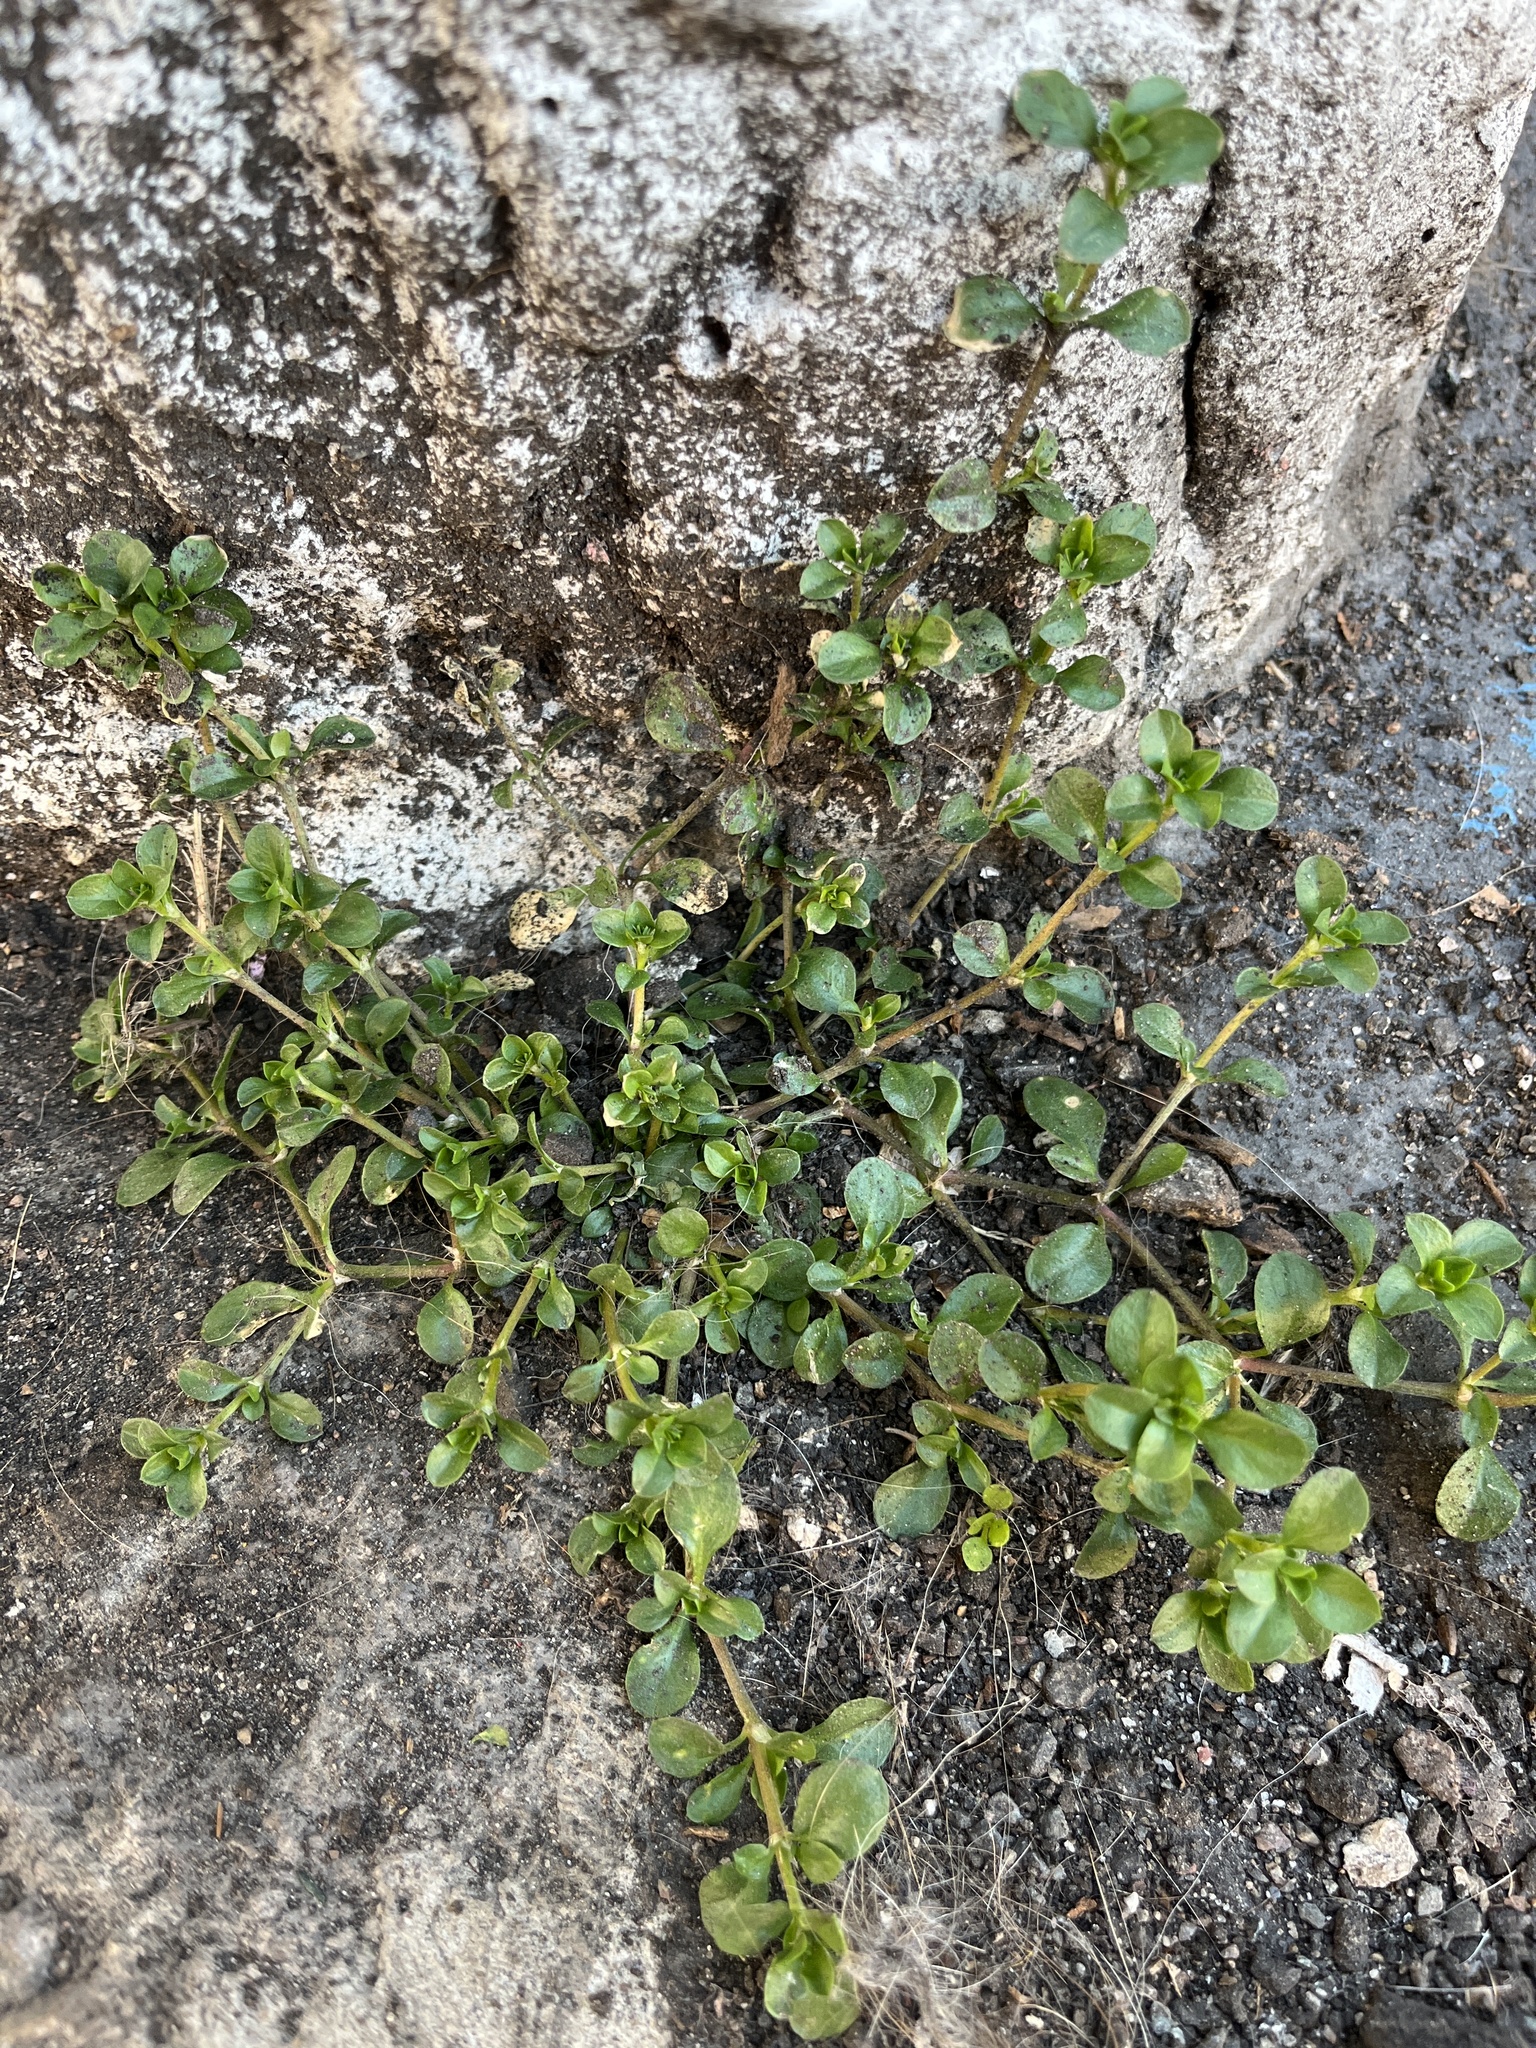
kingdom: Plantae
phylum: Tracheophyta
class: Magnoliopsida
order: Caryophyllales
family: Caryophyllaceae
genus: Polycarpon
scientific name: Polycarpon tetraphyllum
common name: Four-leaved all-seed
